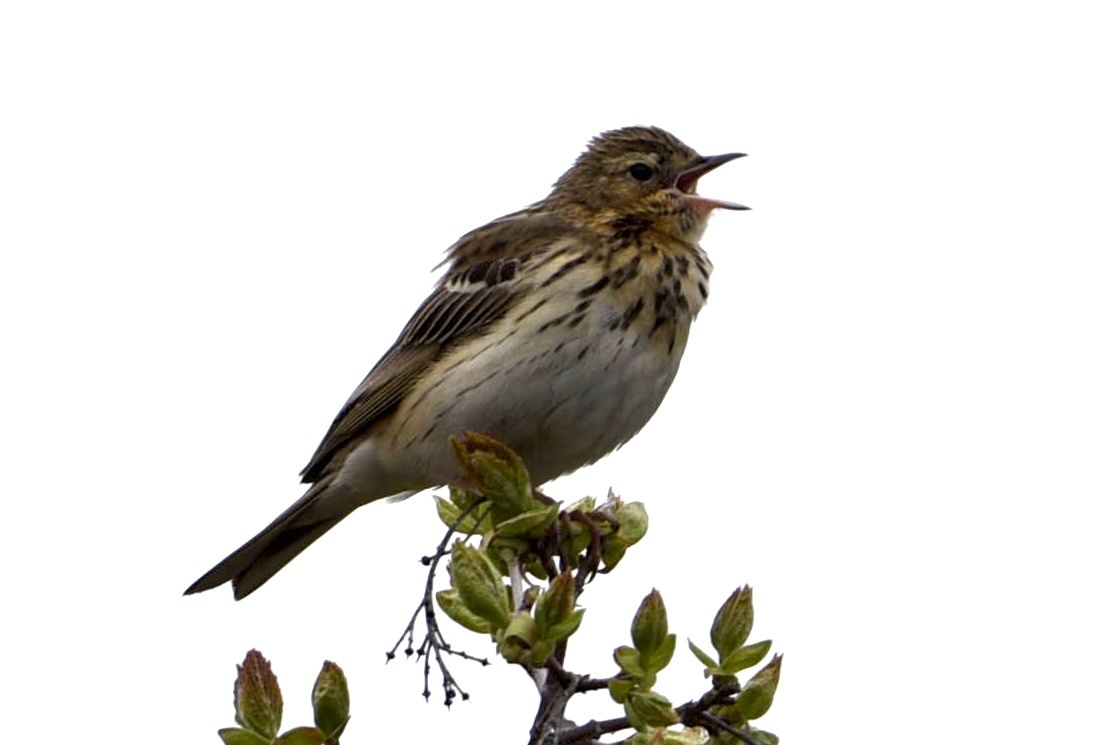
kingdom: Animalia
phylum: Chordata
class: Aves
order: Passeriformes
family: Motacillidae
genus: Anthus
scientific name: Anthus trivialis
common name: Tree pipit
